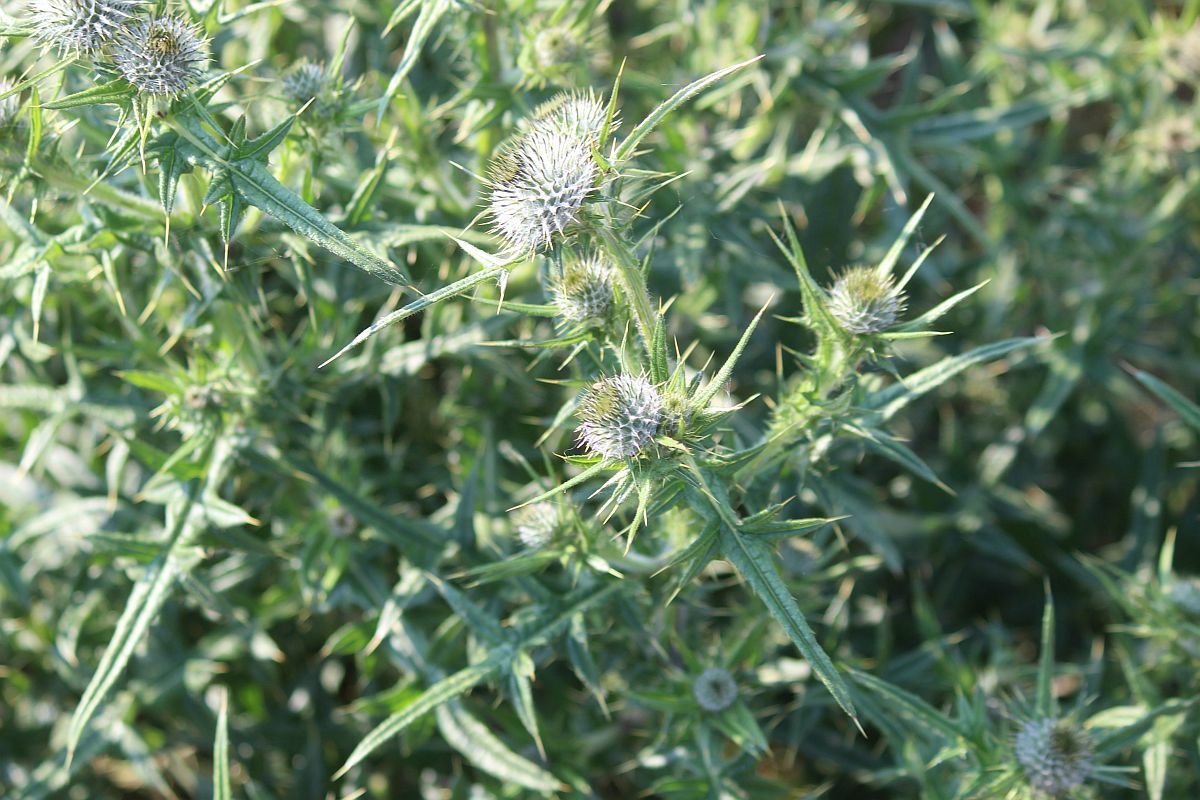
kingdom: Plantae
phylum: Tracheophyta
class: Magnoliopsida
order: Asterales
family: Asteraceae
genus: Cirsium
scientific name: Cirsium vulgare
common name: Bull thistle
